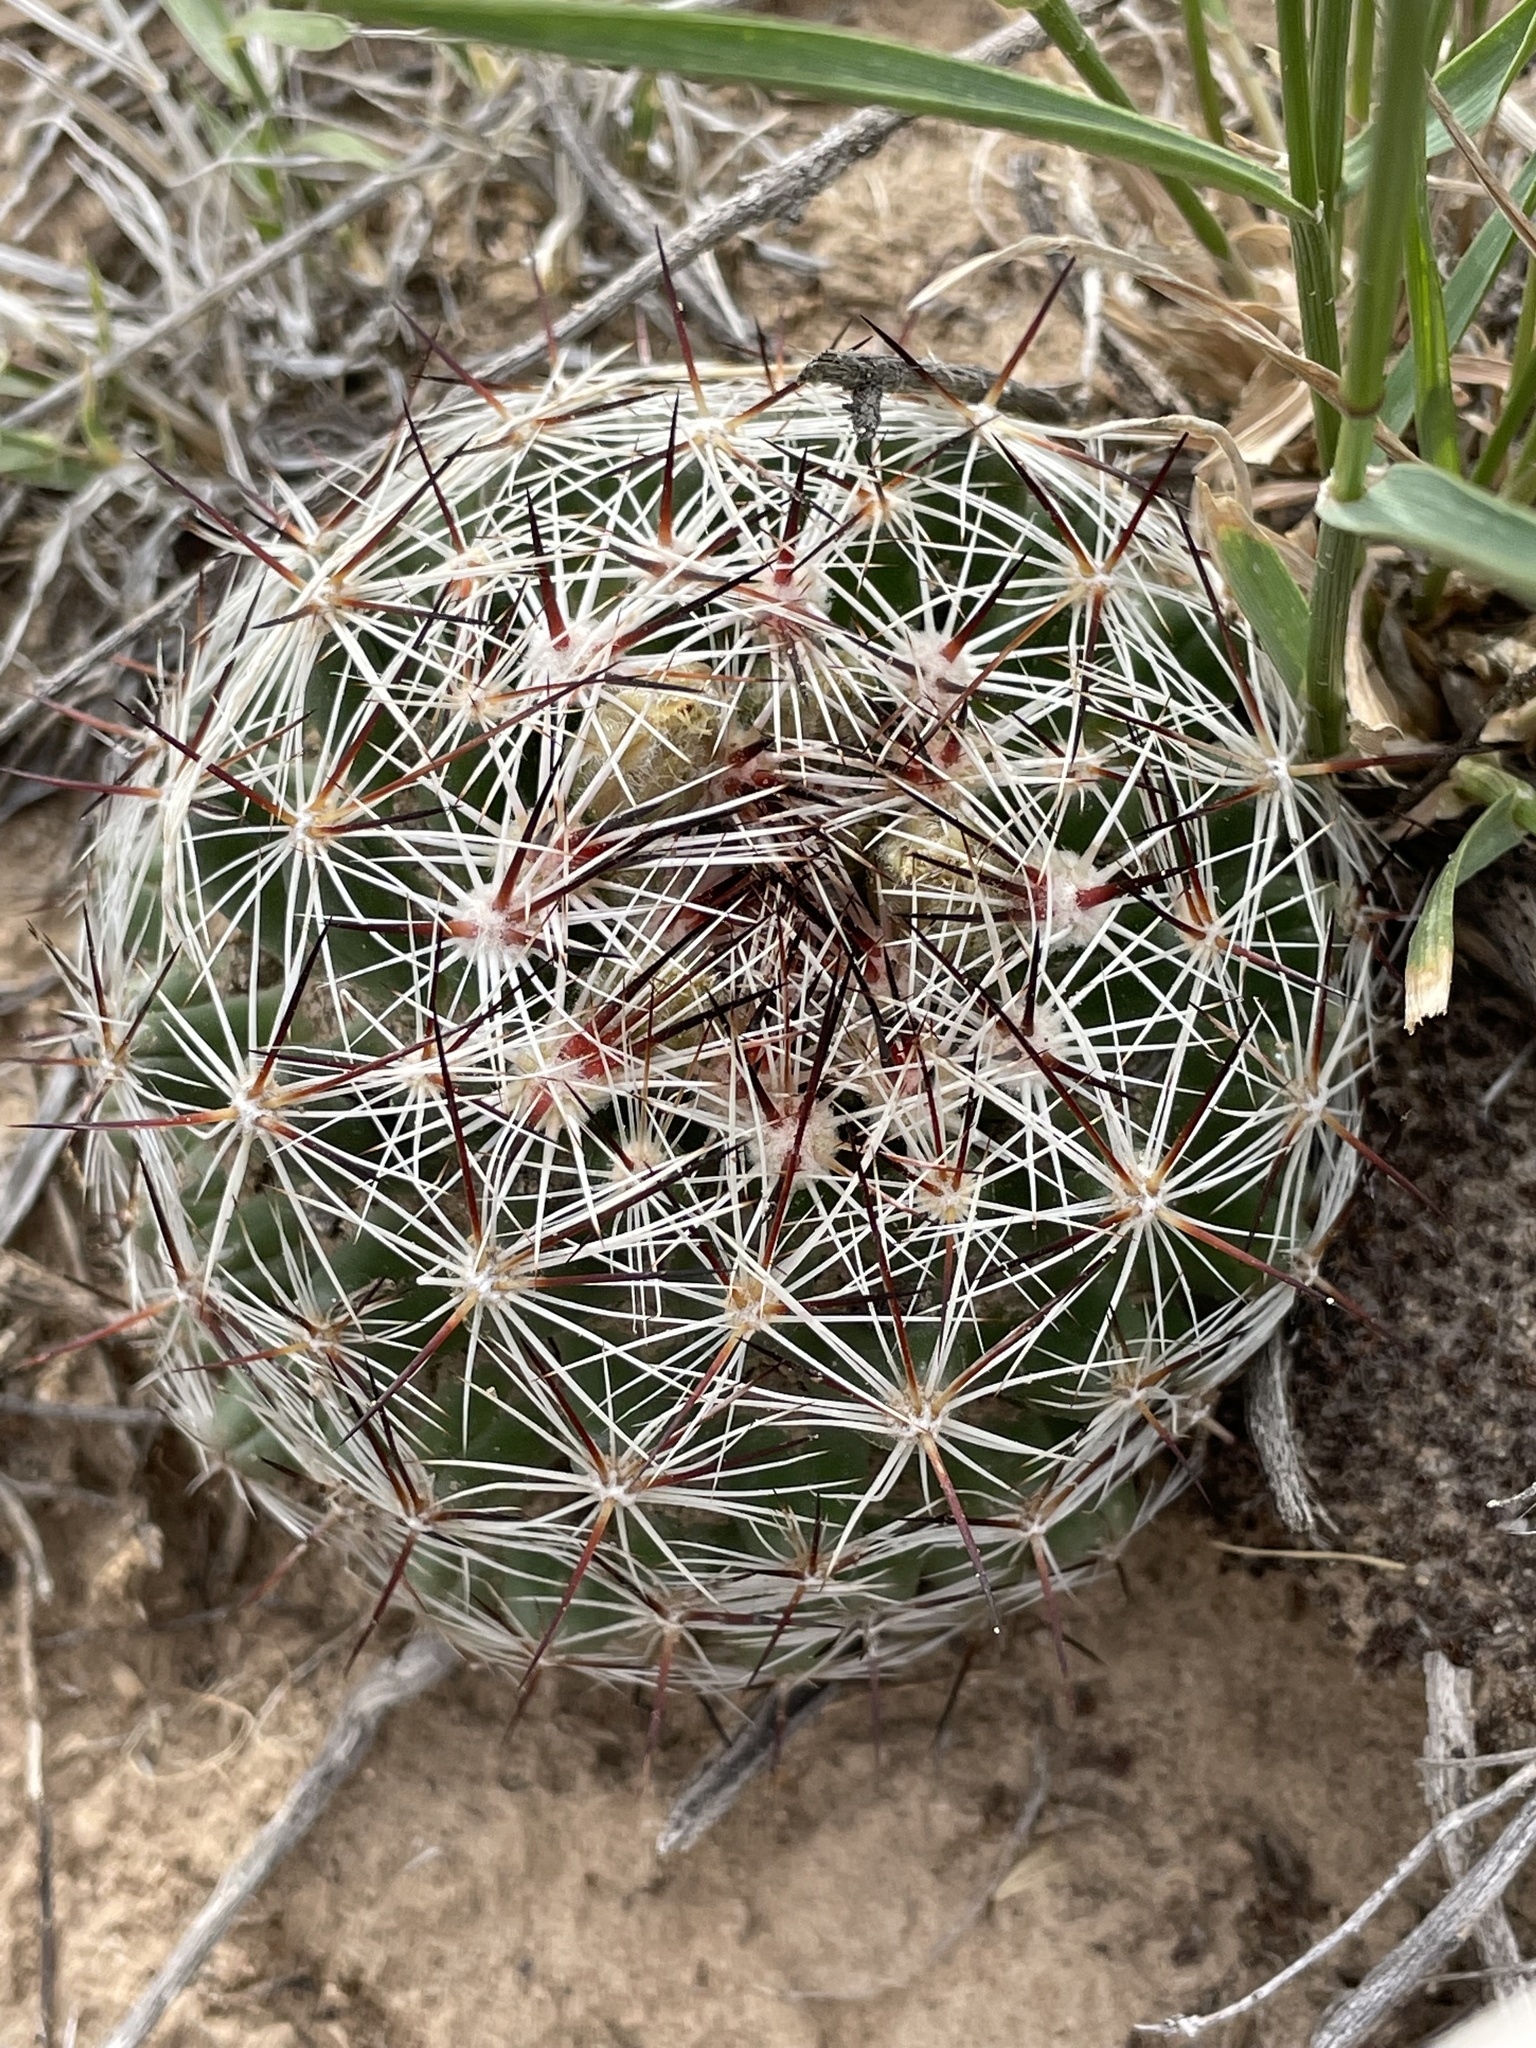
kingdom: Plantae
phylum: Tracheophyta
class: Magnoliopsida
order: Caryophyllales
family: Cactaceae
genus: Pelecyphora
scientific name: Pelecyphora vivipara
